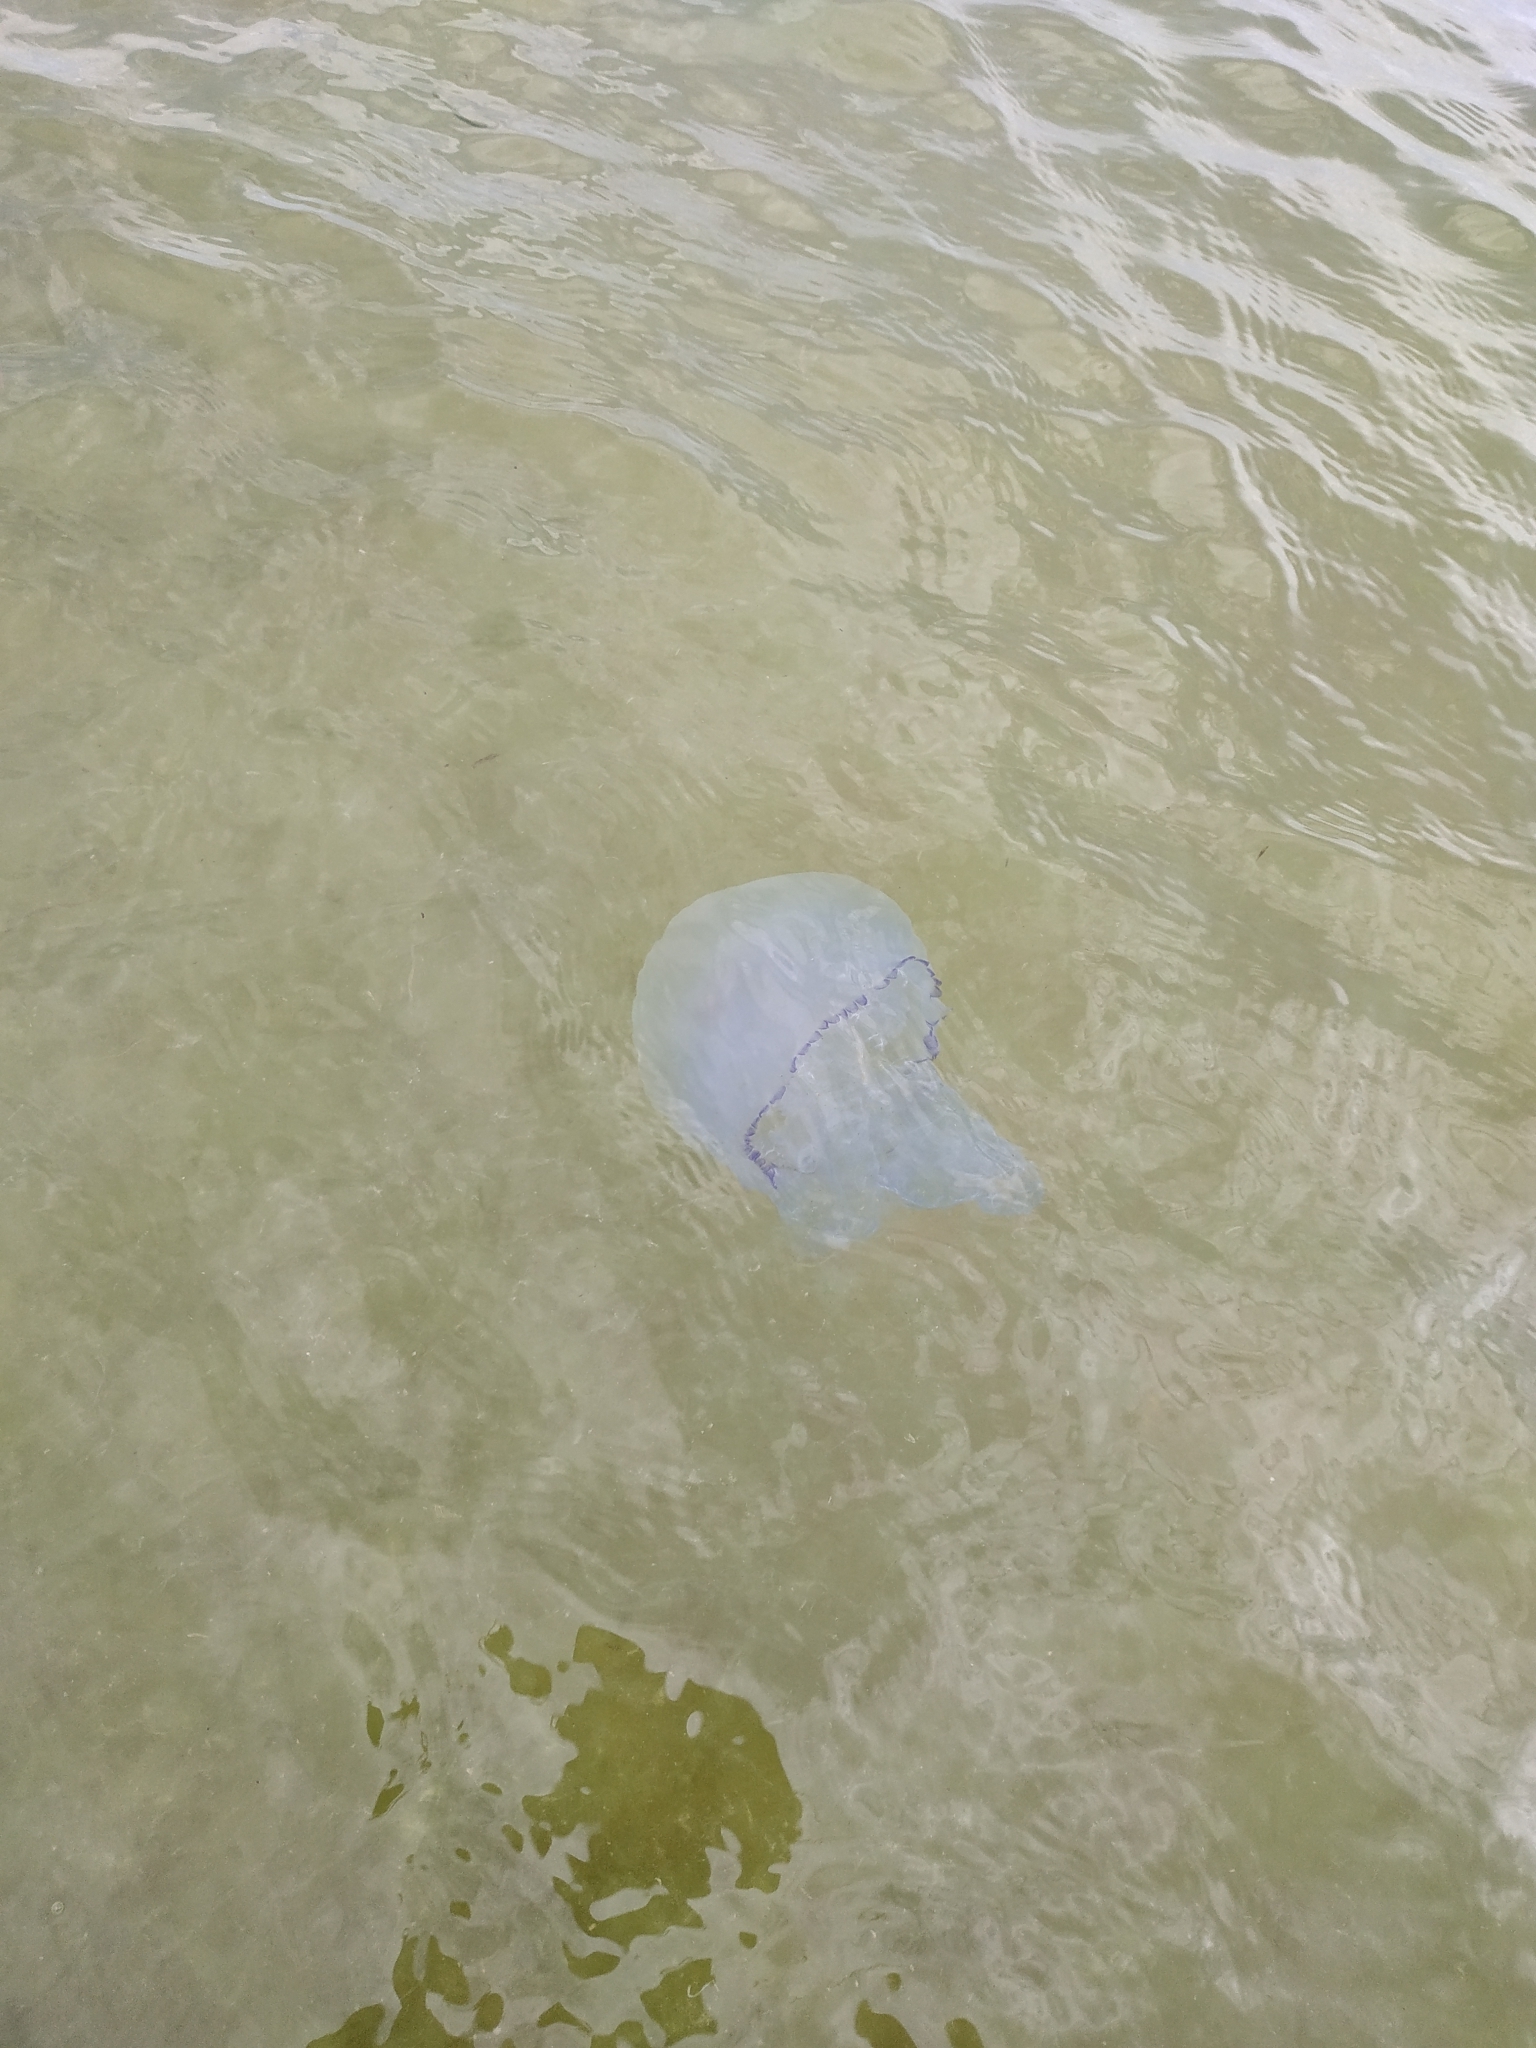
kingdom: Animalia
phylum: Cnidaria
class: Scyphozoa
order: Rhizostomeae
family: Rhizostomatidae
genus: Rhizostoma
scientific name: Rhizostoma pulmo
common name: Barrel jellyfish
